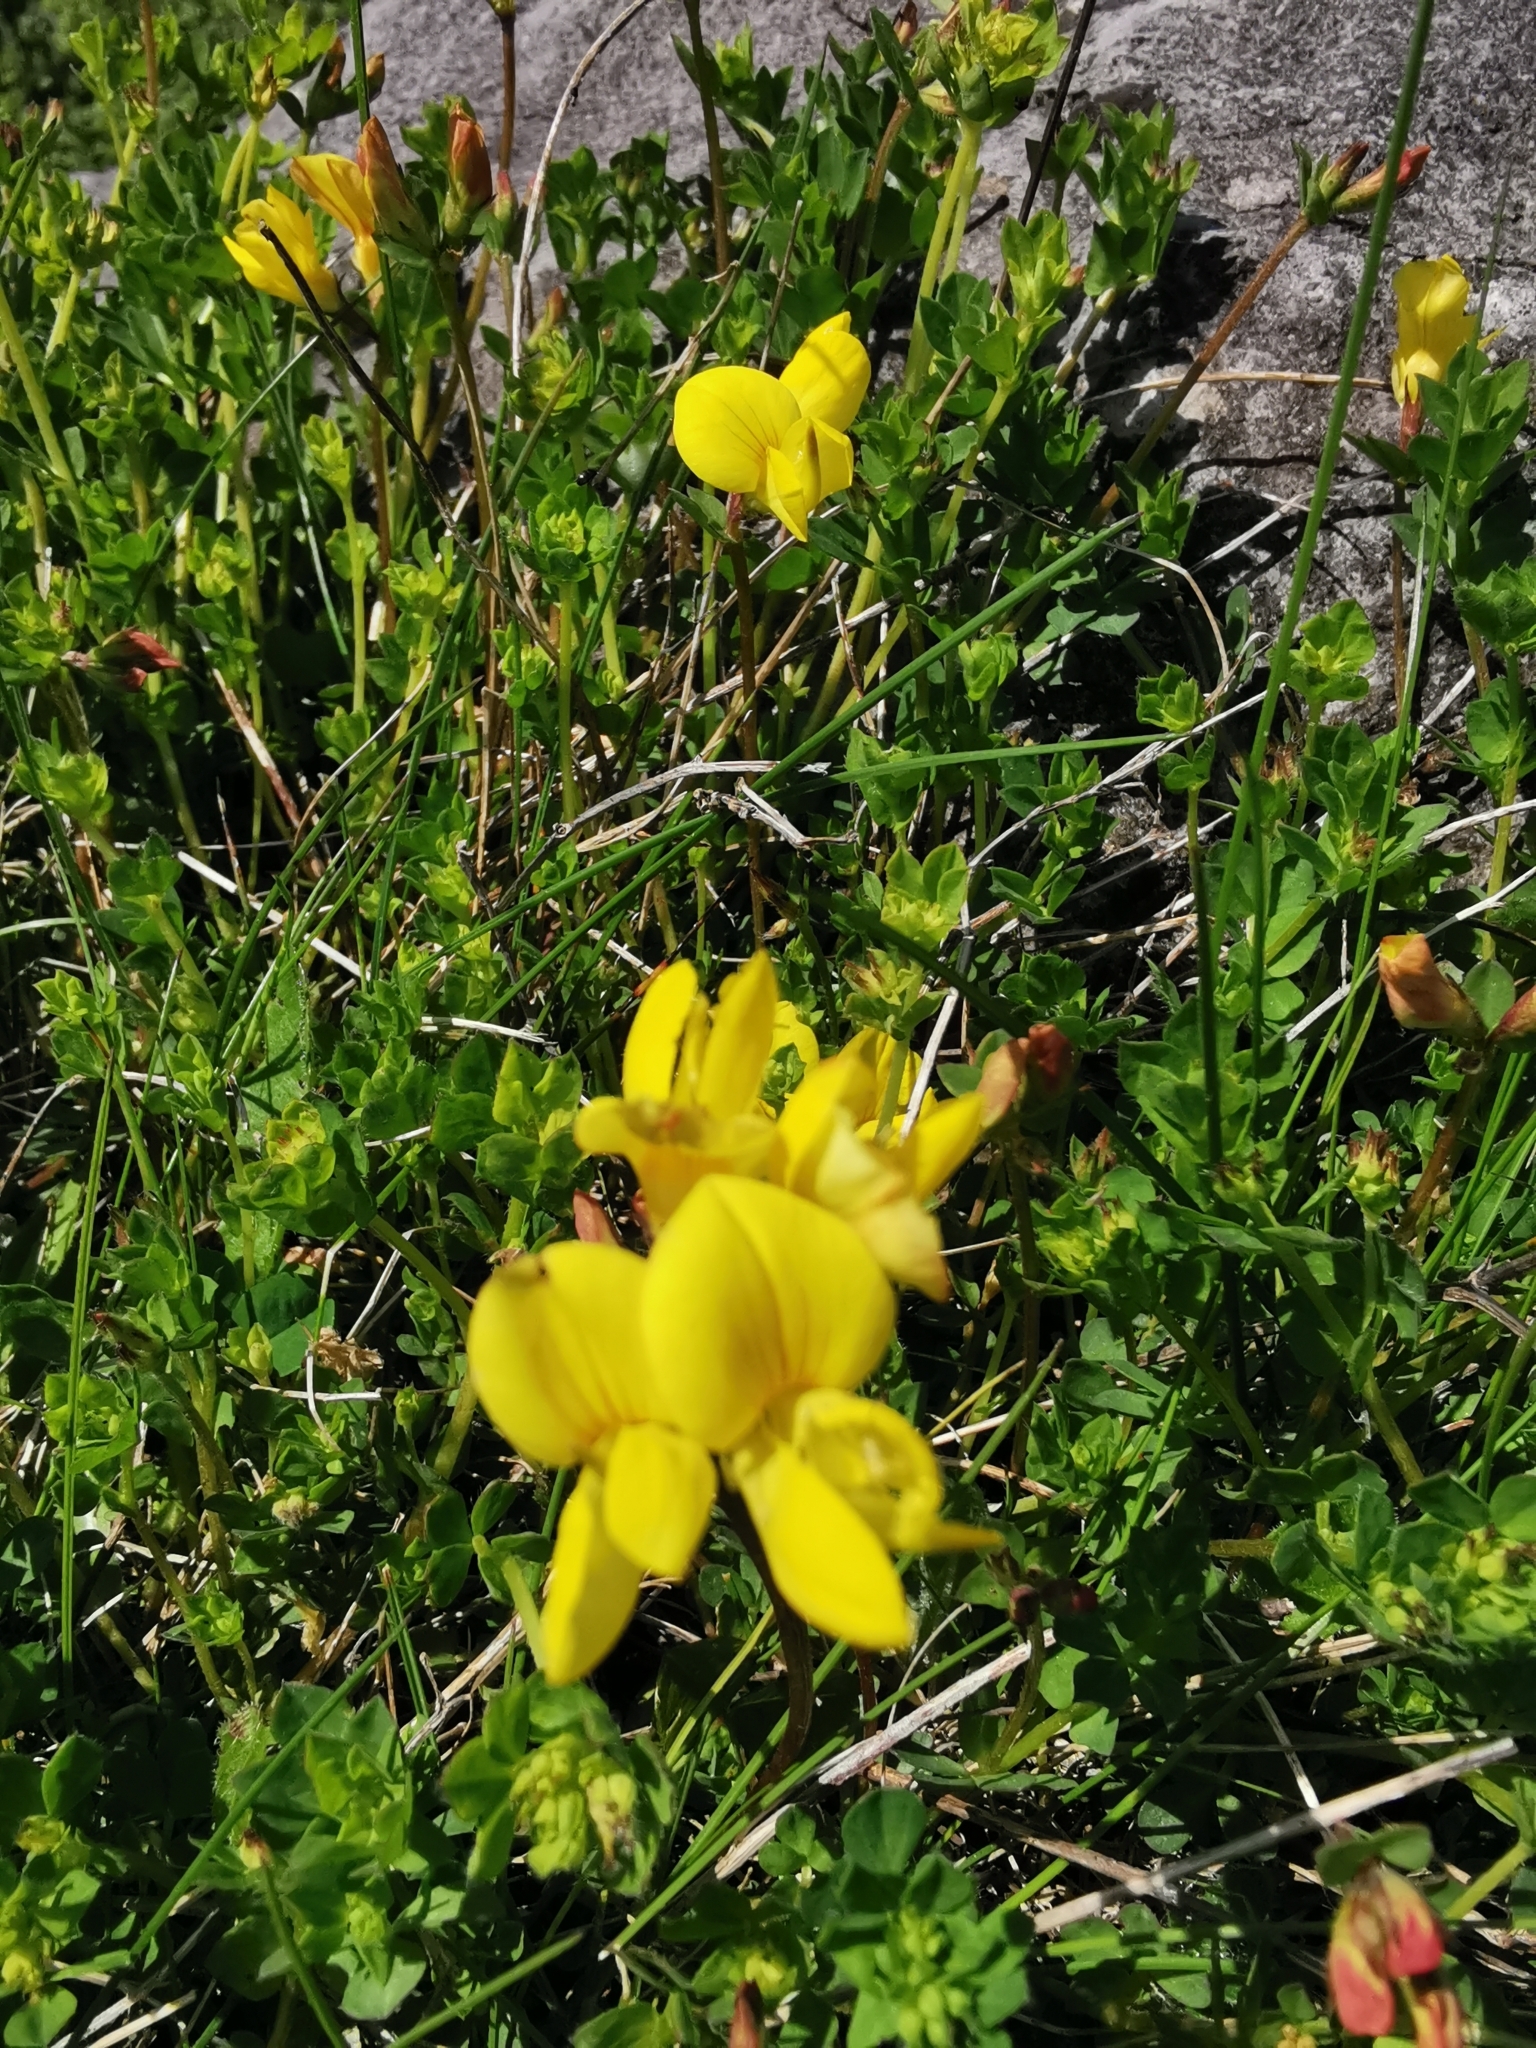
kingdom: Plantae
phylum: Tracheophyta
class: Magnoliopsida
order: Fabales
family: Fabaceae
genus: Lotus
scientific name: Lotus corniculatus
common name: Common bird's-foot-trefoil
